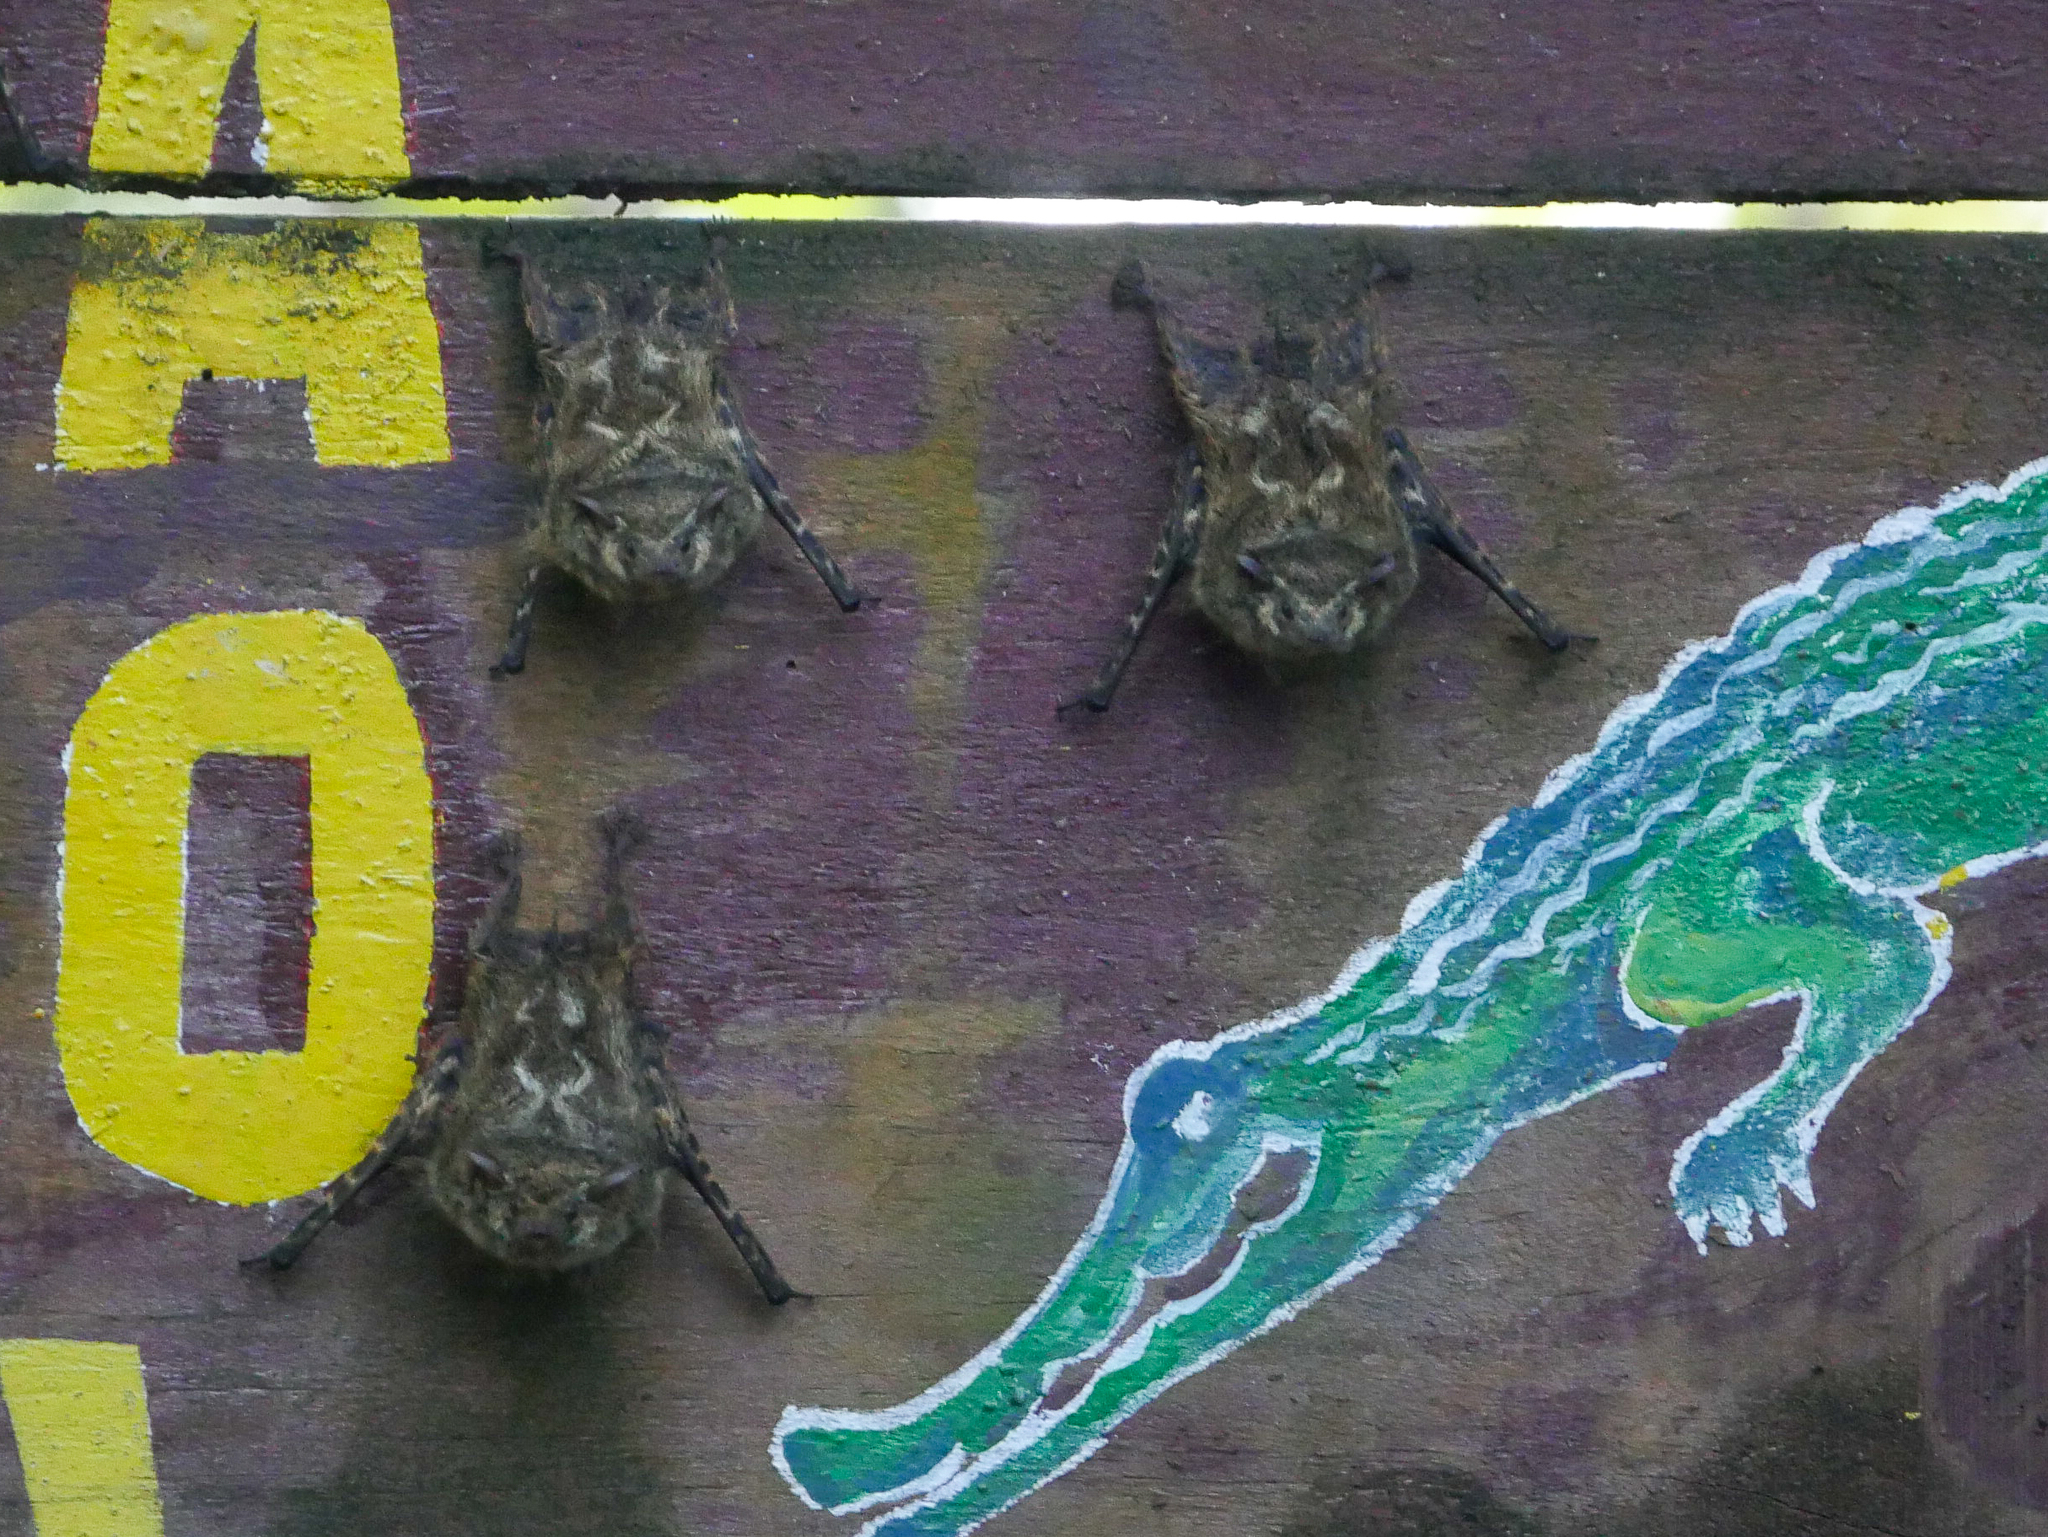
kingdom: Animalia
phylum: Chordata
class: Mammalia
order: Chiroptera
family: Emballonuridae
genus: Rhynchonycteris
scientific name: Rhynchonycteris naso
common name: Proboscis bat
